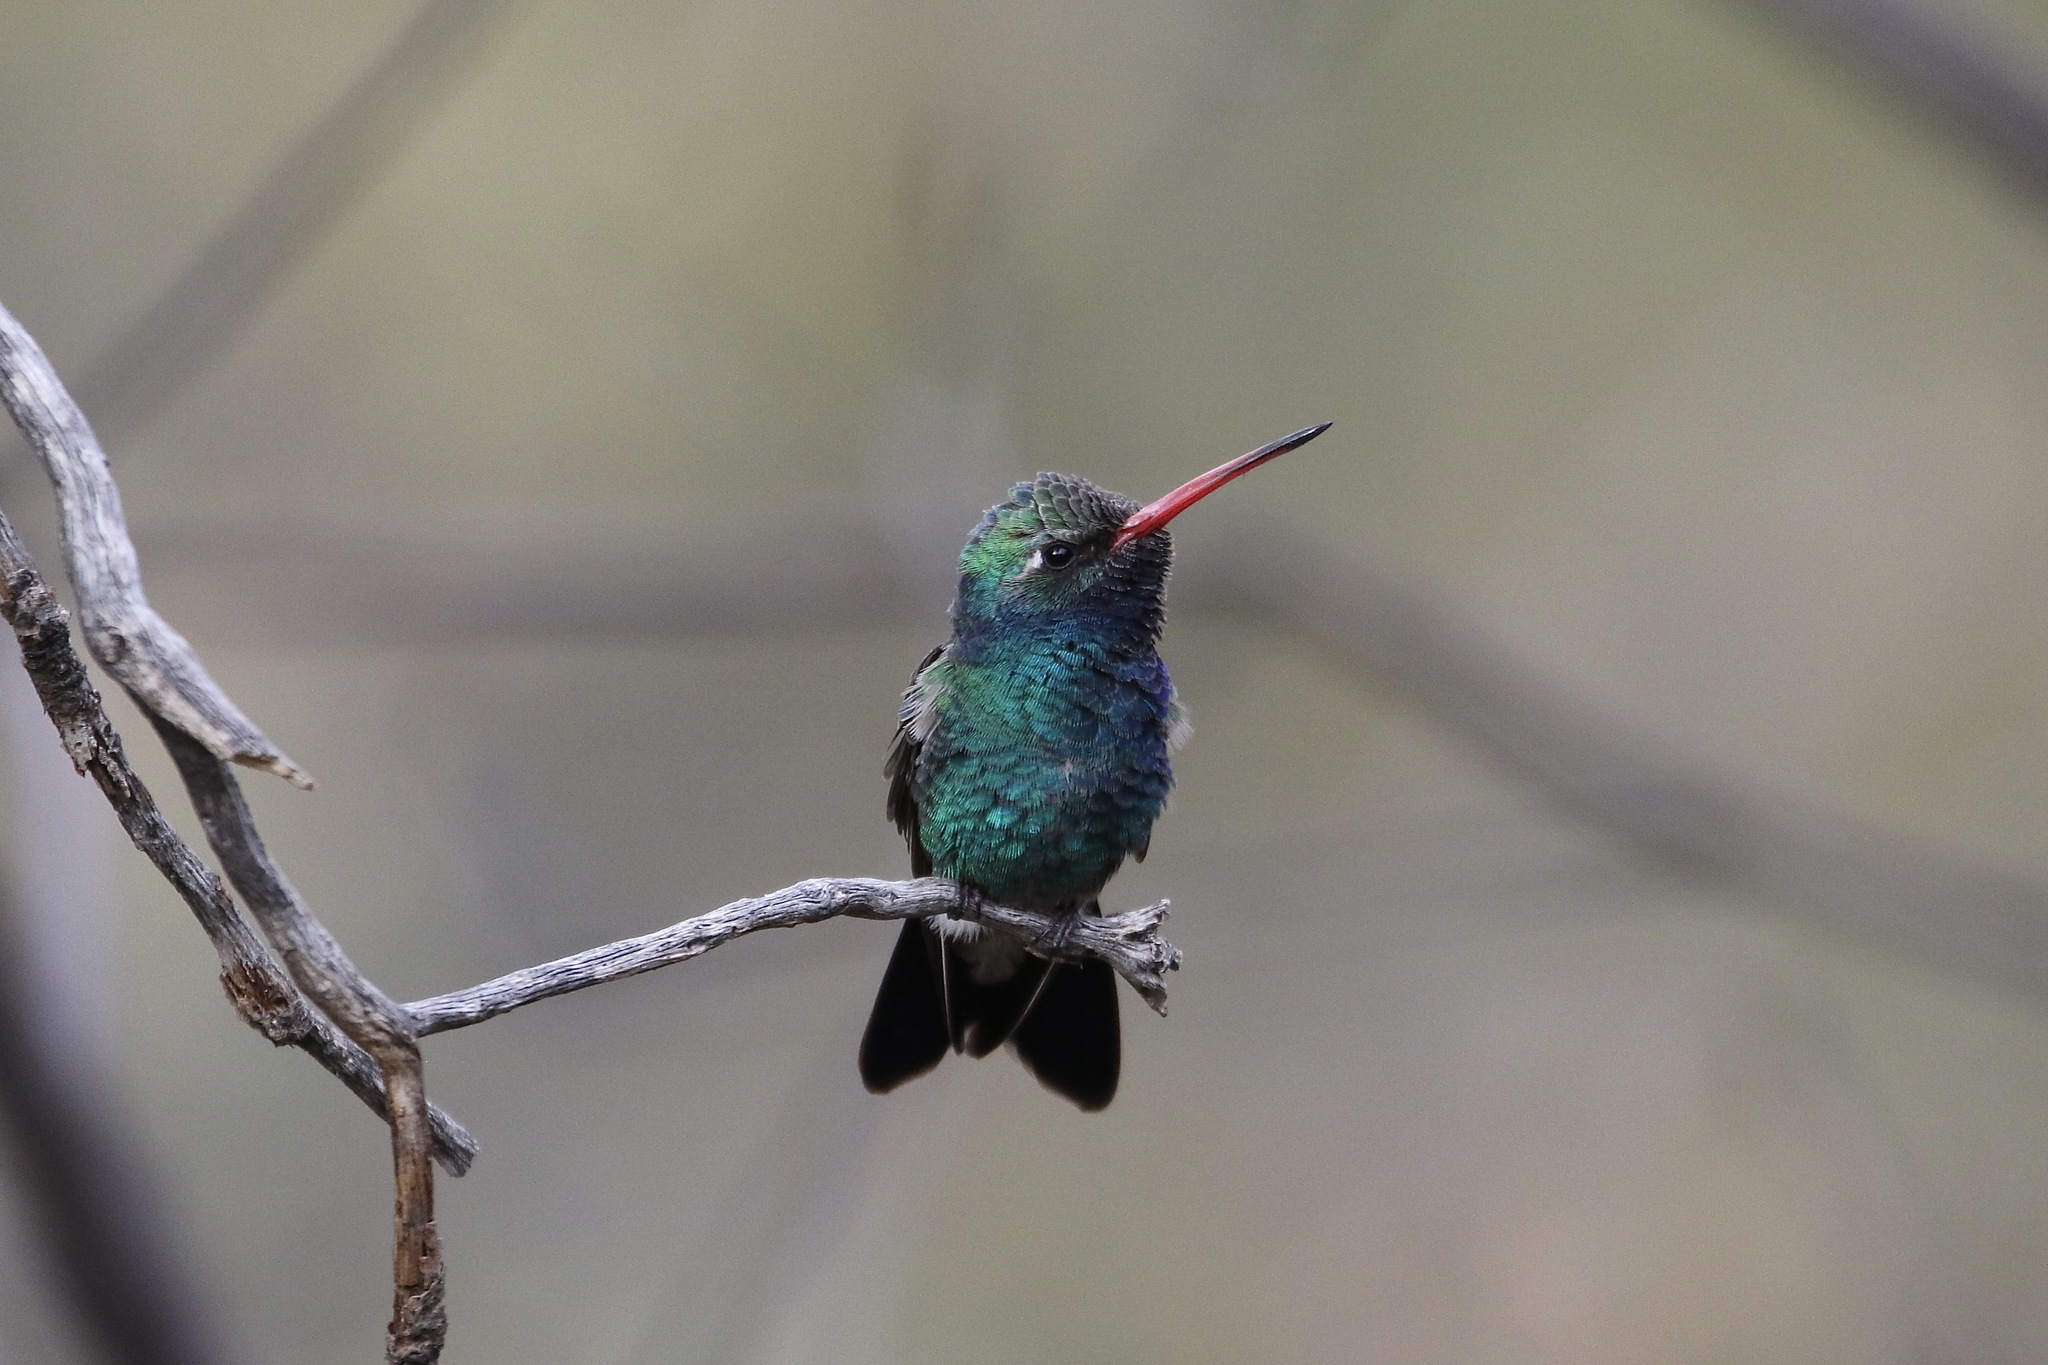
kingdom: Animalia
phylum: Chordata
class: Aves
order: Apodiformes
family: Trochilidae
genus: Cynanthus
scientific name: Cynanthus latirostris
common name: Broad-billed hummingbird
